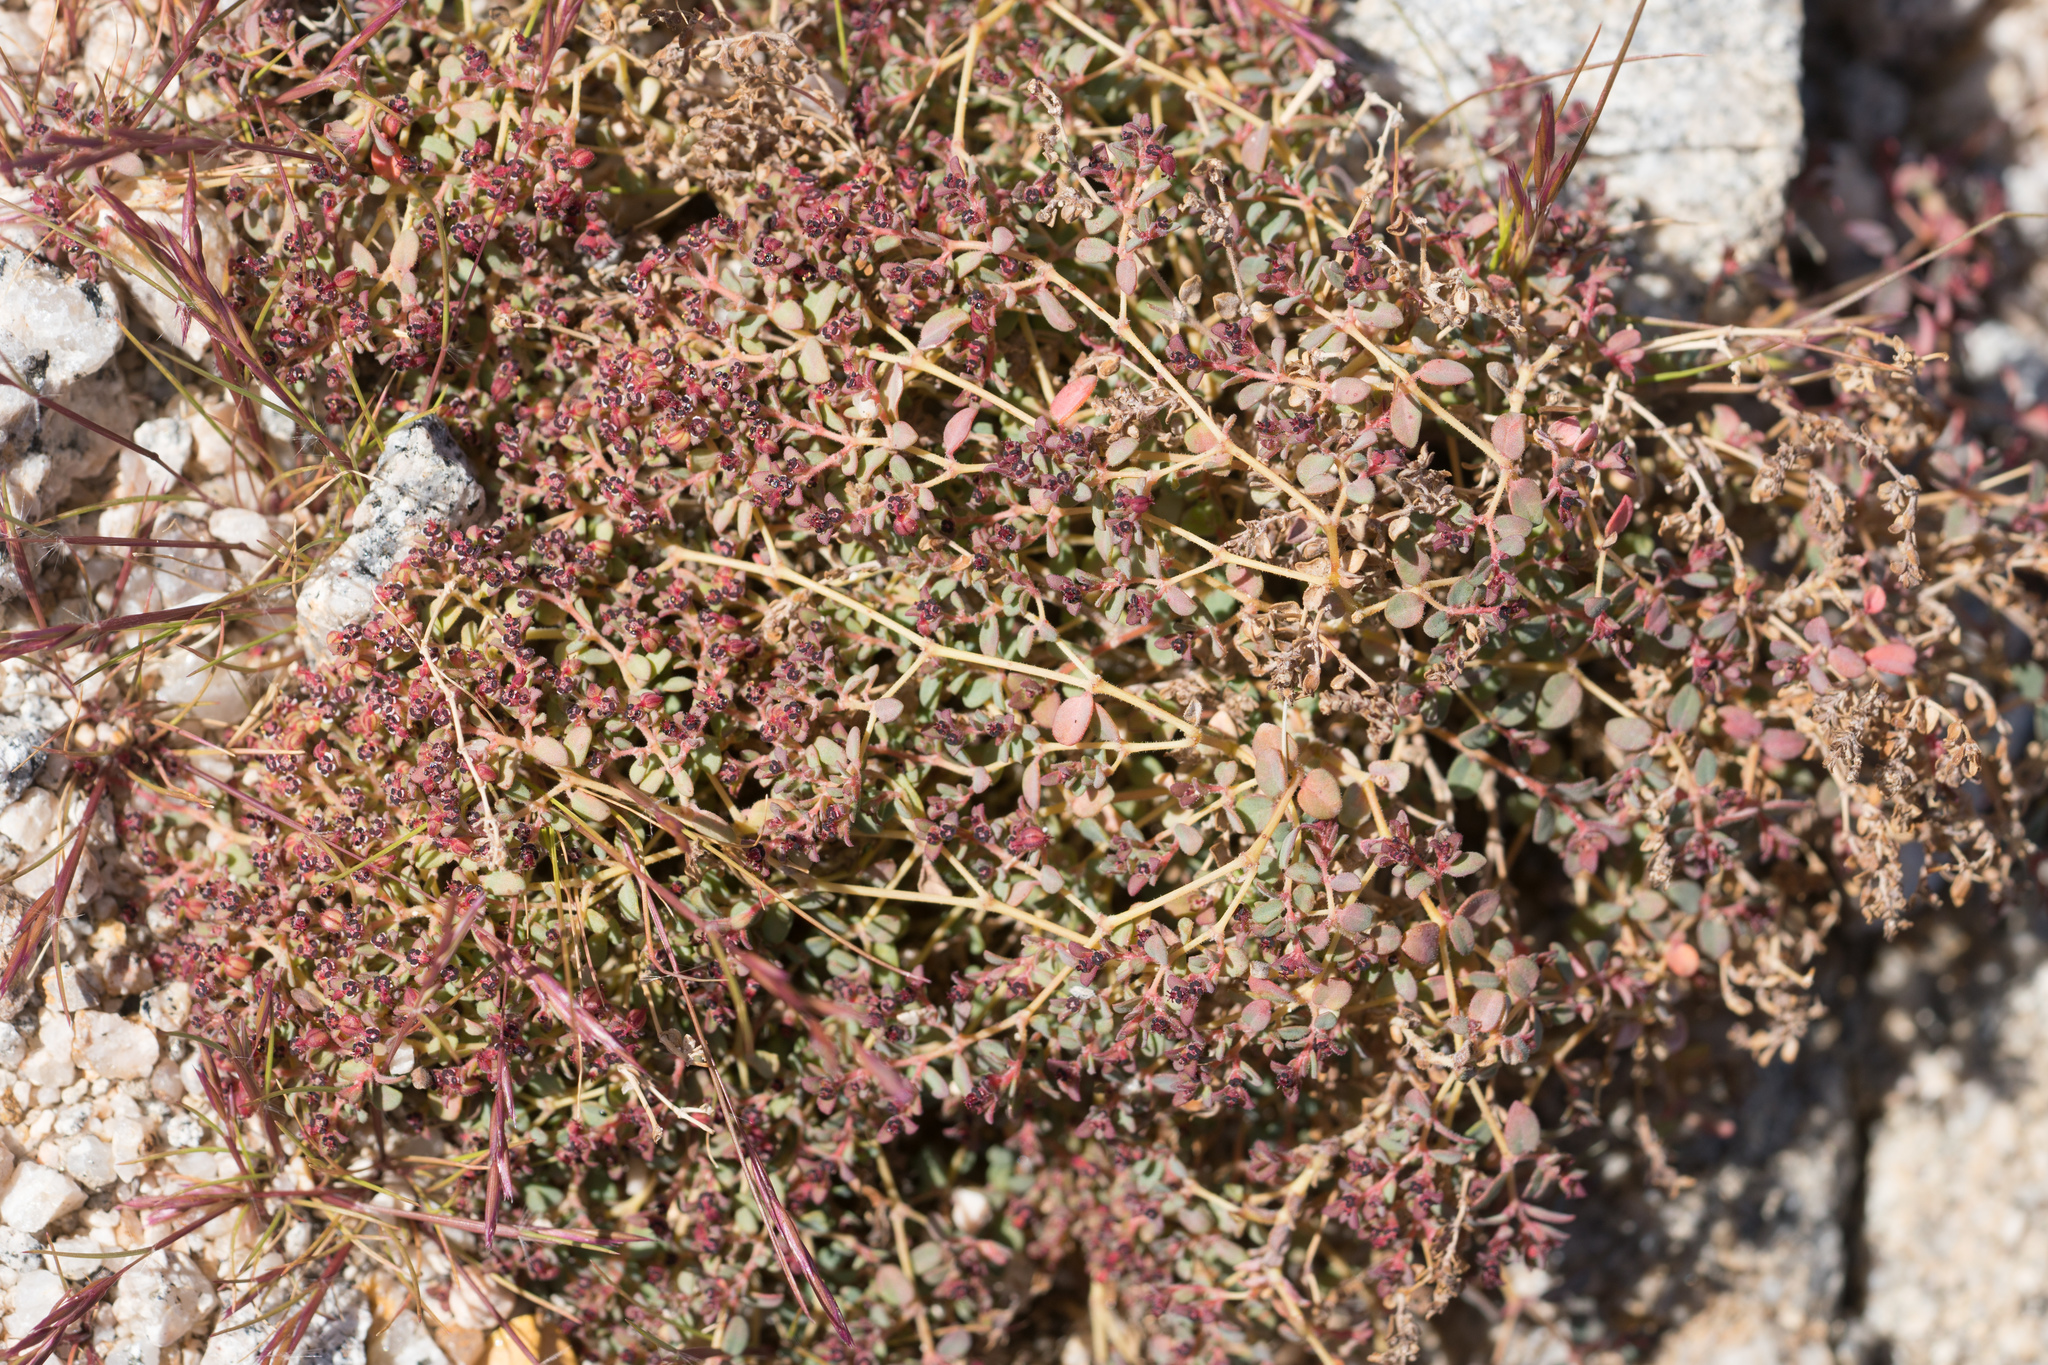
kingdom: Plantae
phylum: Tracheophyta
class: Magnoliopsida
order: Malpighiales
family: Euphorbiaceae
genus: Euphorbia
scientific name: Euphorbia polycarpa
